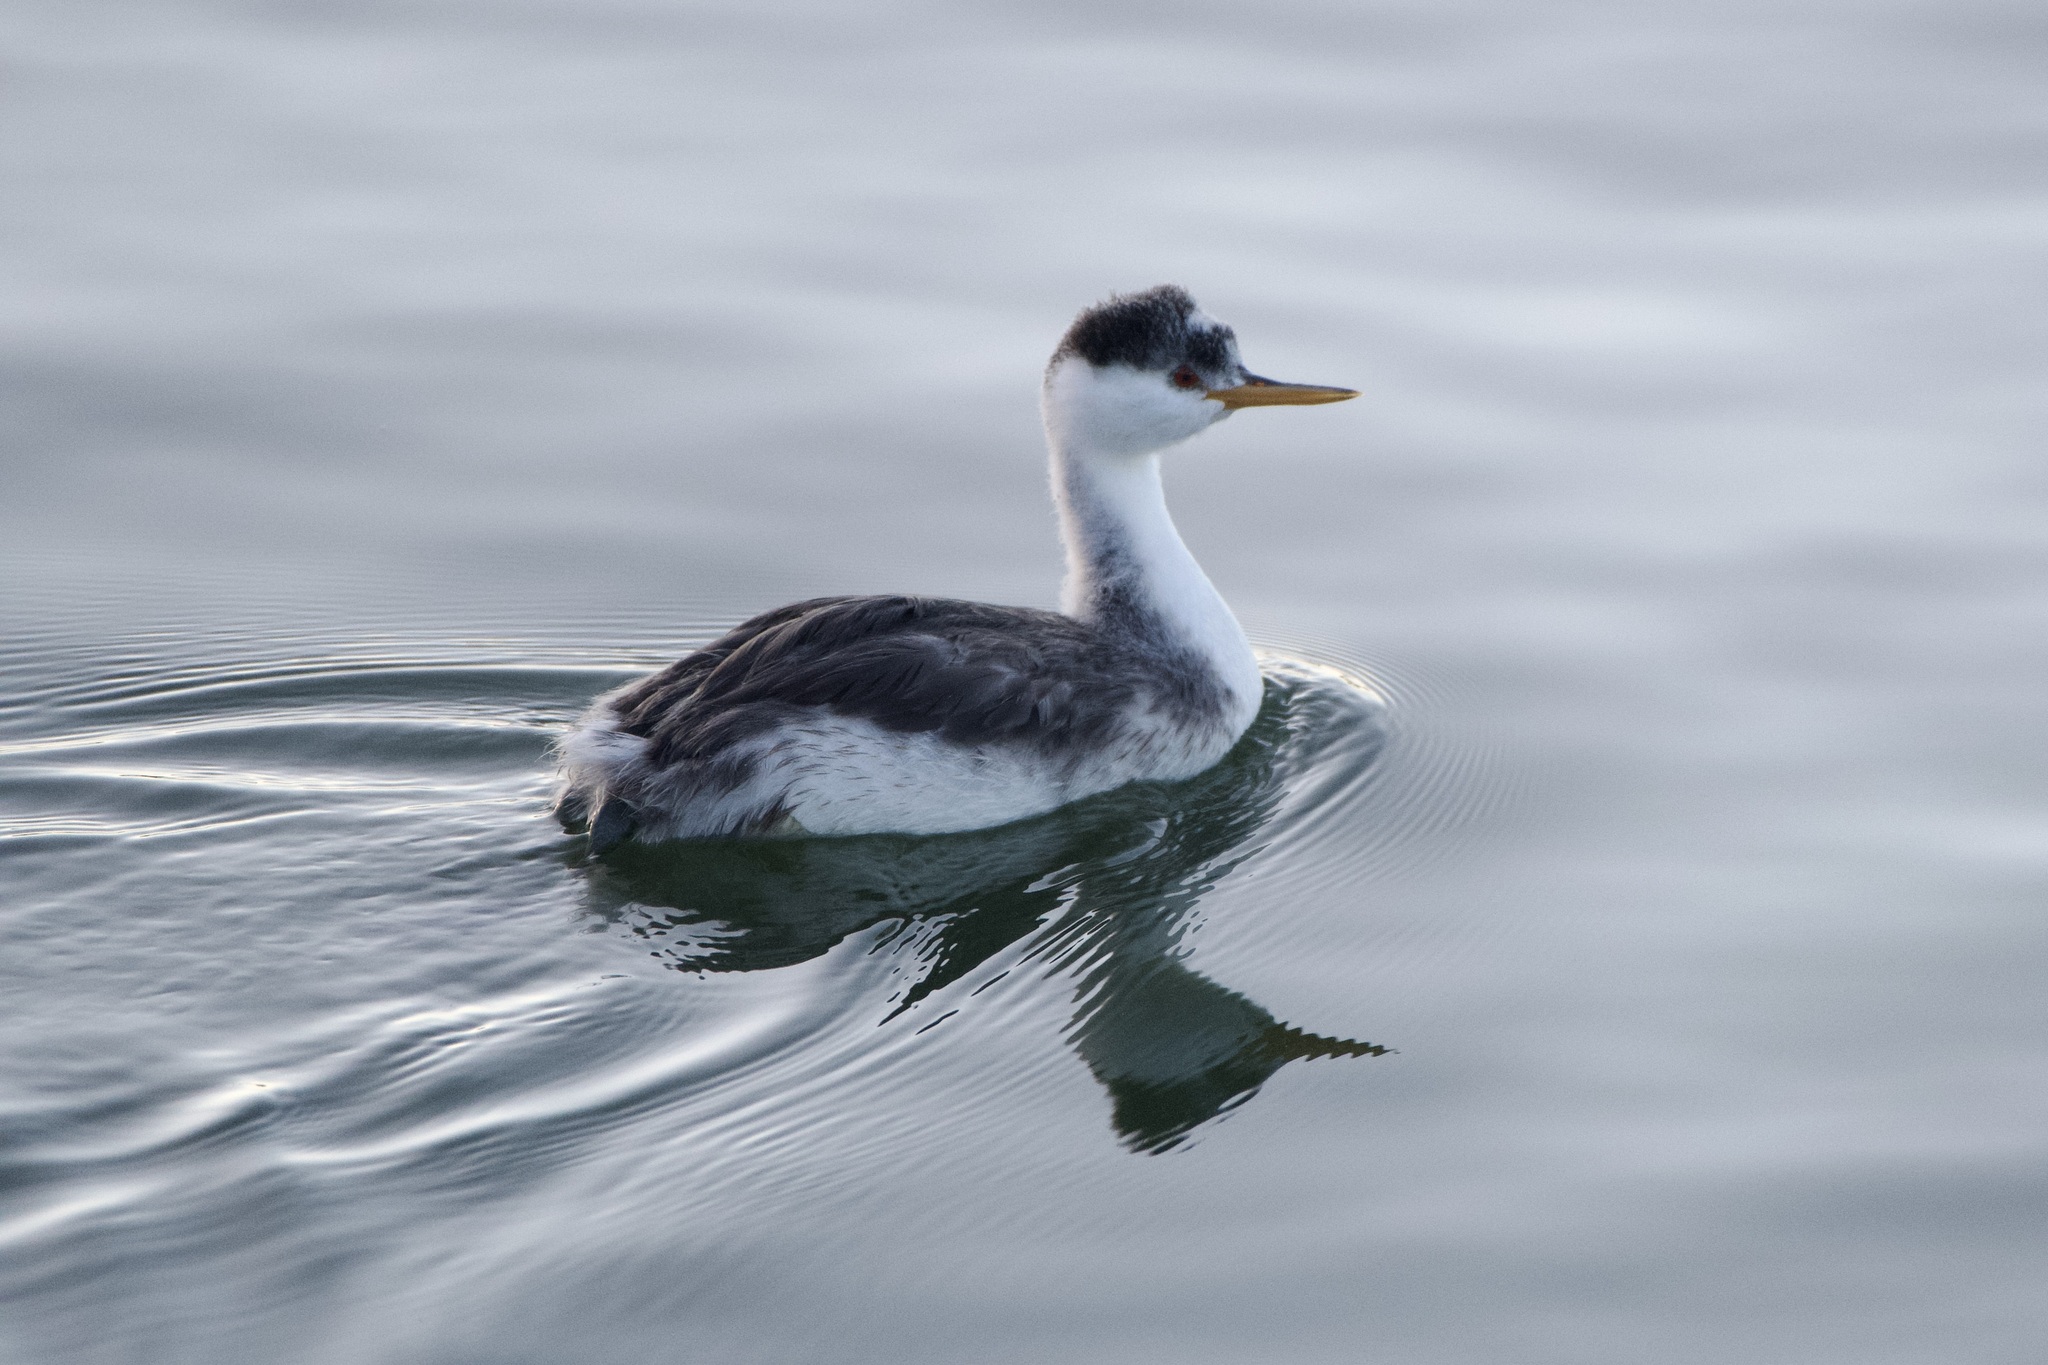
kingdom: Animalia
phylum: Chordata
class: Aves
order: Podicipediformes
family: Podicipedidae
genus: Aechmophorus
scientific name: Aechmophorus clarkii
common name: Clark's grebe
